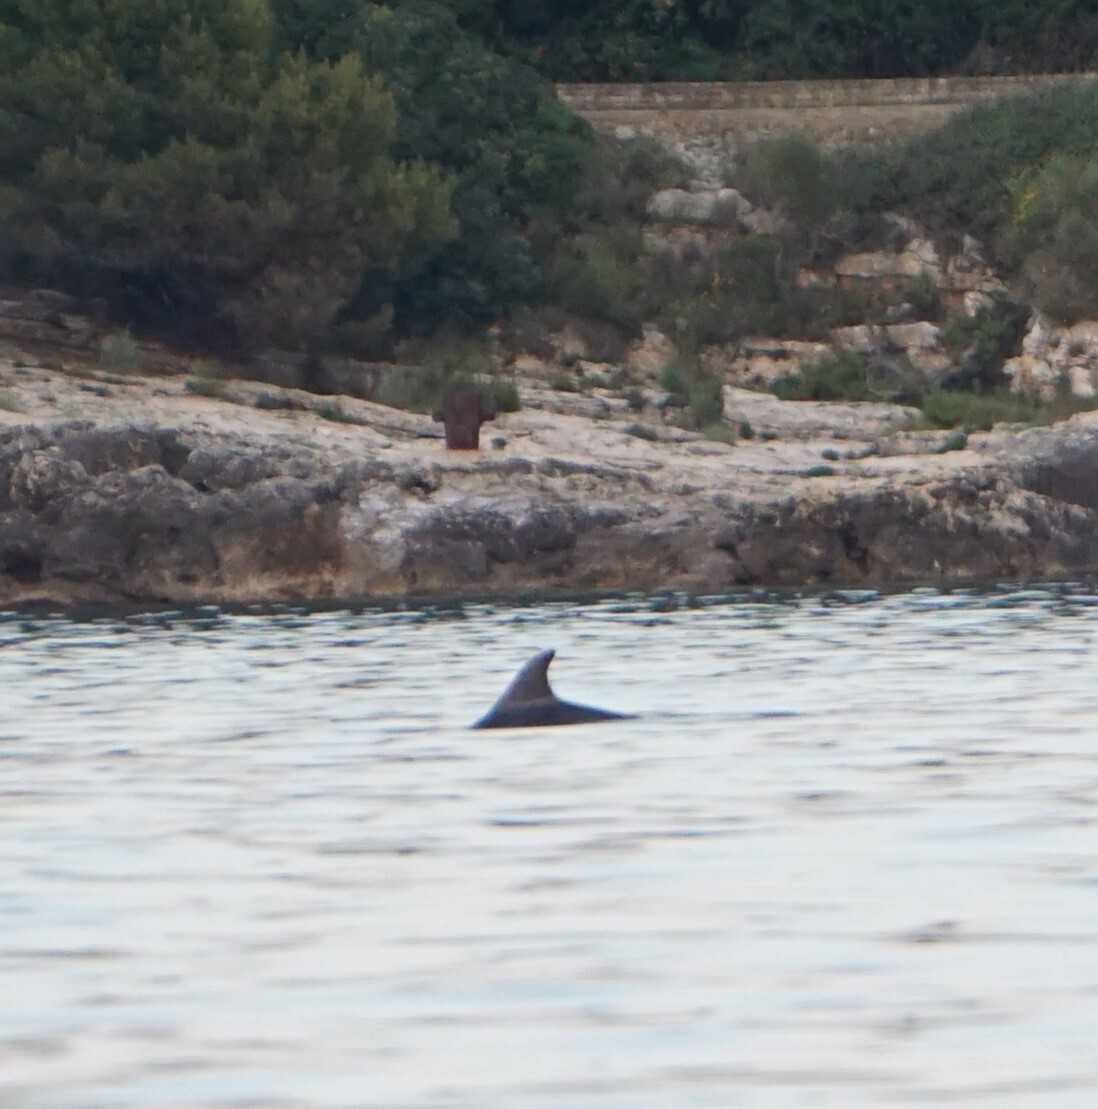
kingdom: Animalia
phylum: Chordata
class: Mammalia
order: Cetacea
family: Delphinidae
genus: Tursiops
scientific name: Tursiops truncatus
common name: Bottlenose dolphin
